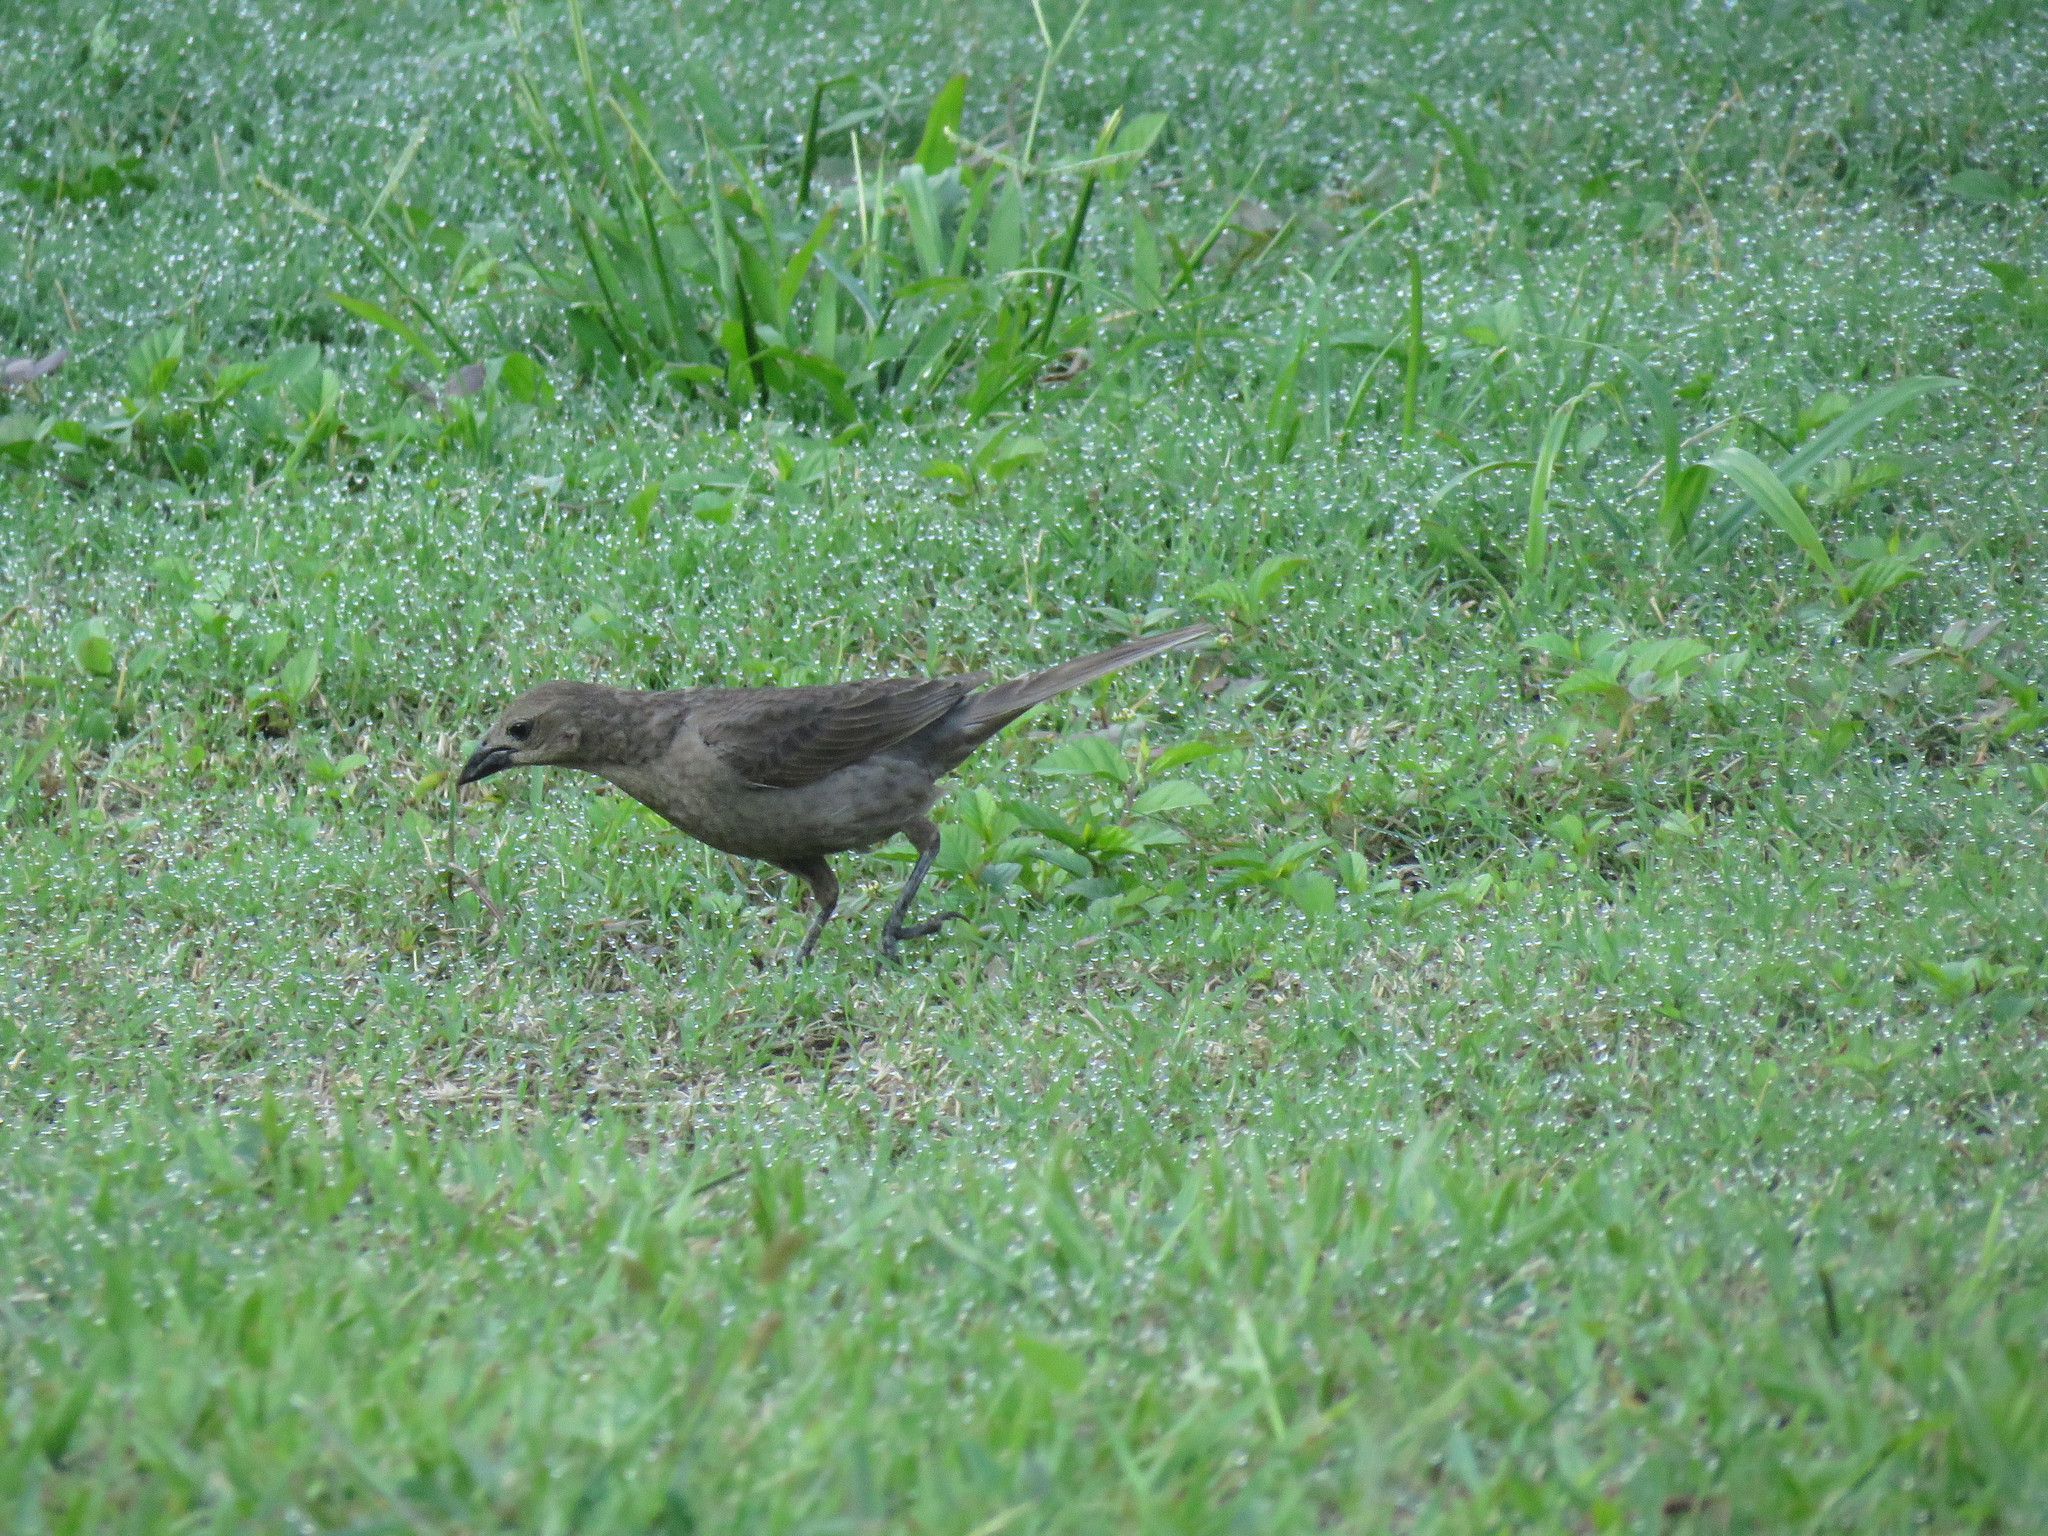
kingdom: Animalia
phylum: Chordata
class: Aves
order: Passeriformes
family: Icteridae
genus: Molothrus
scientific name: Molothrus bonariensis
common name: Shiny cowbird
